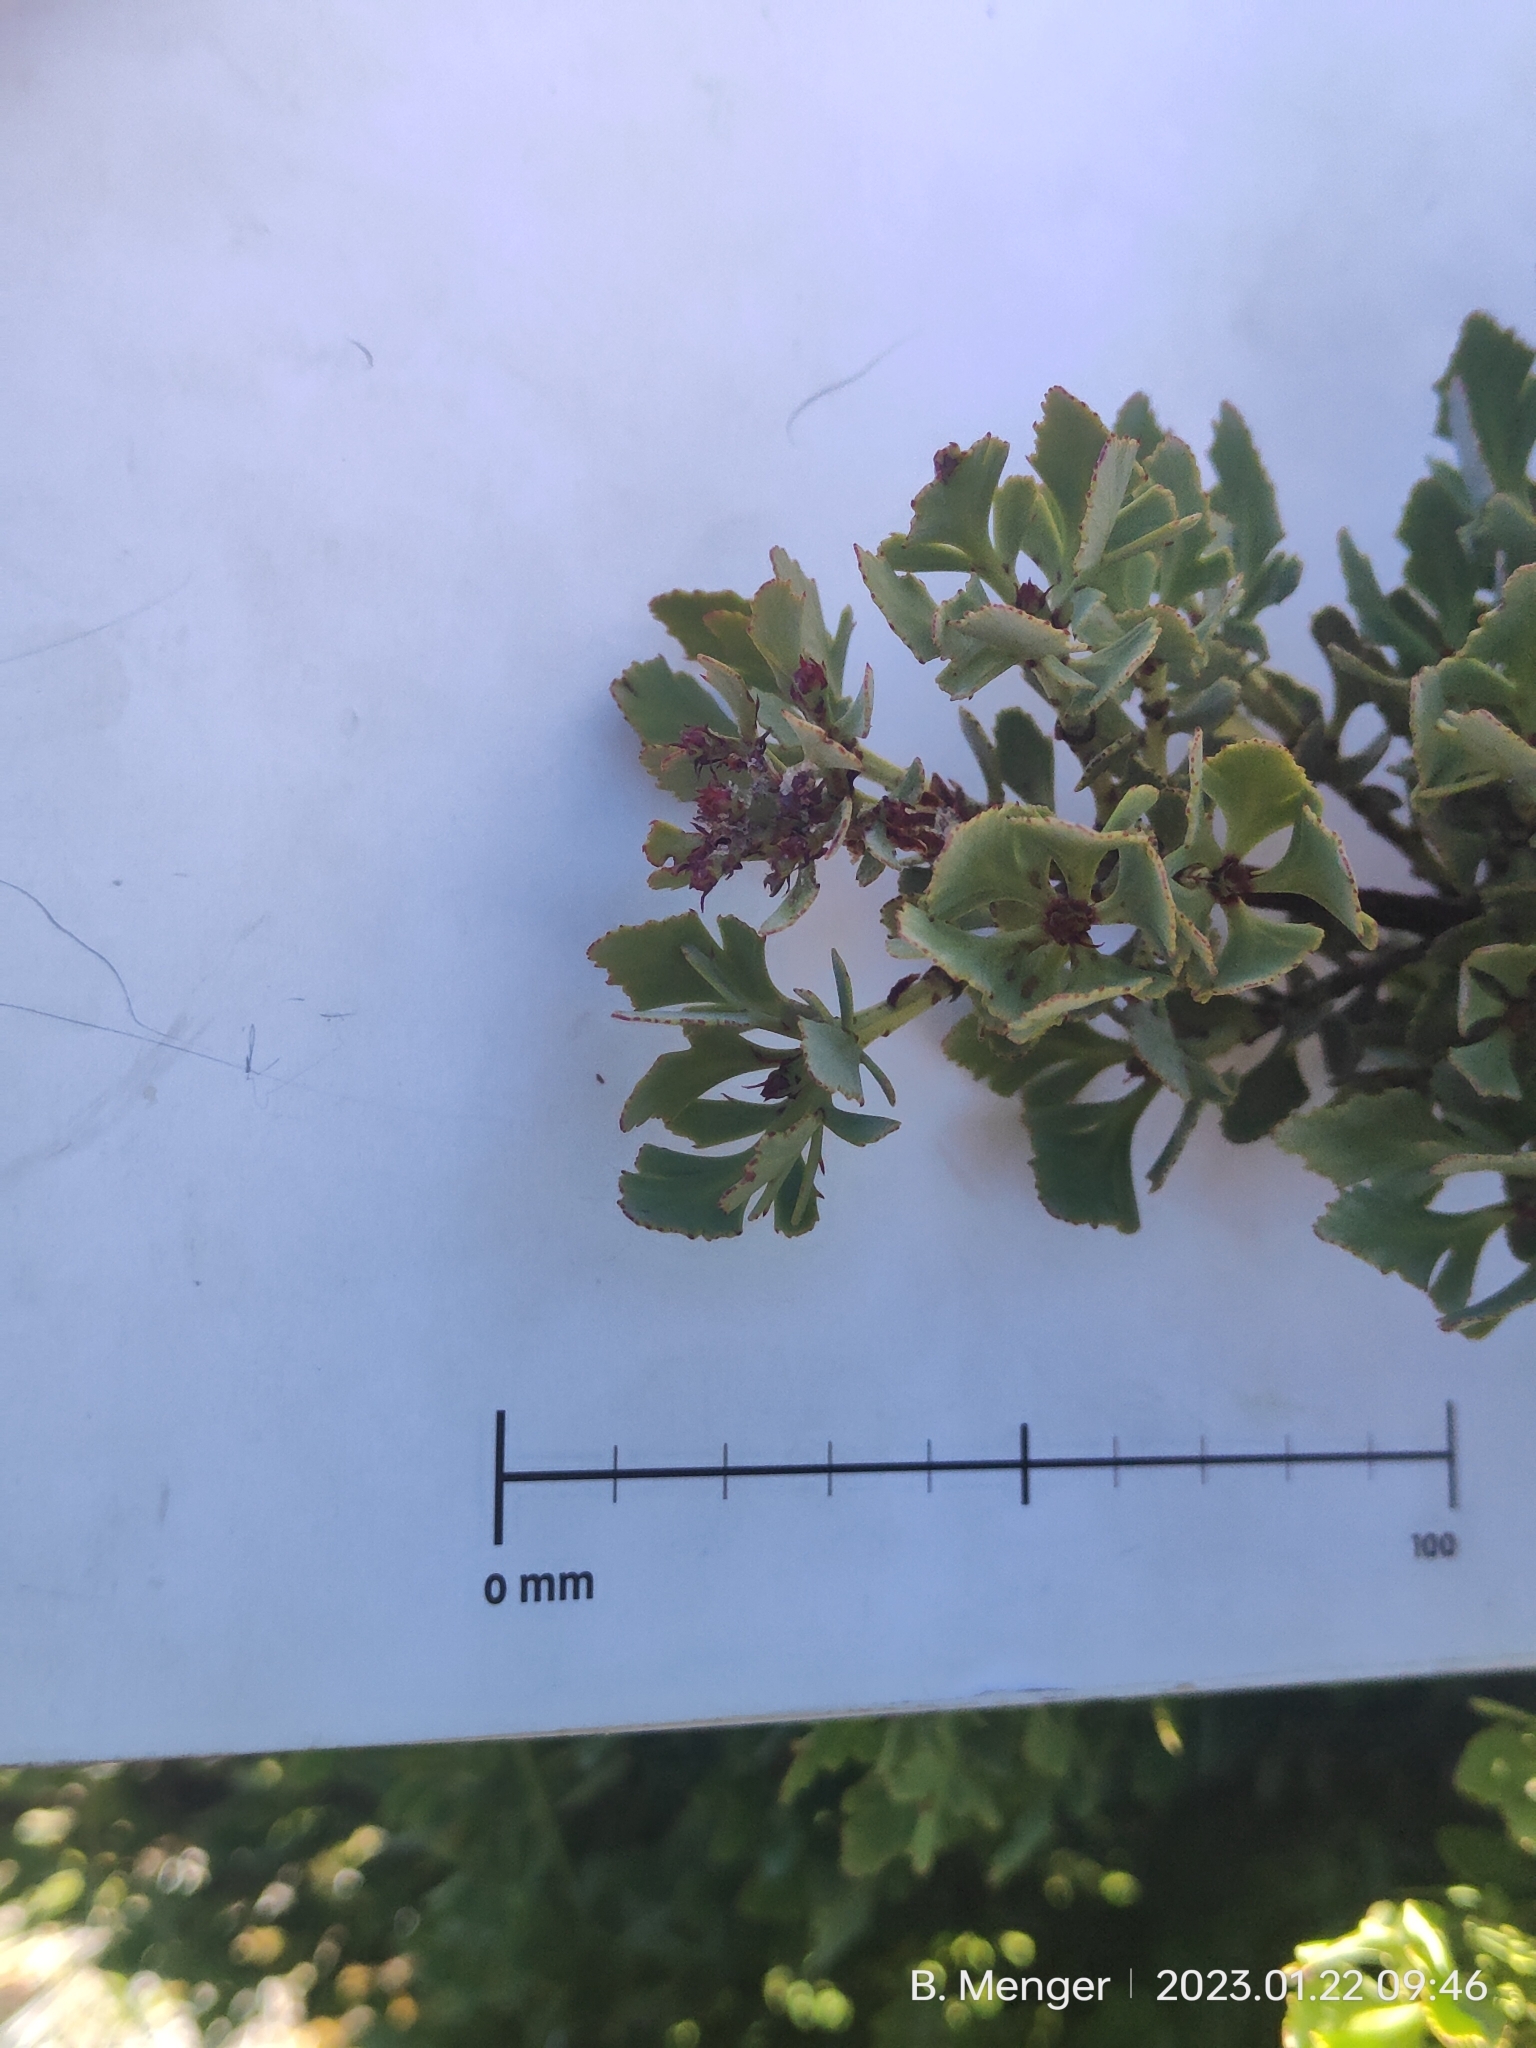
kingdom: Plantae
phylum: Tracheophyta
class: Pinopsida
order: Pinales
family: Phyllocladaceae
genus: Phyllocladus
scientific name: Phyllocladus trichomanoides
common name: Celery pine
